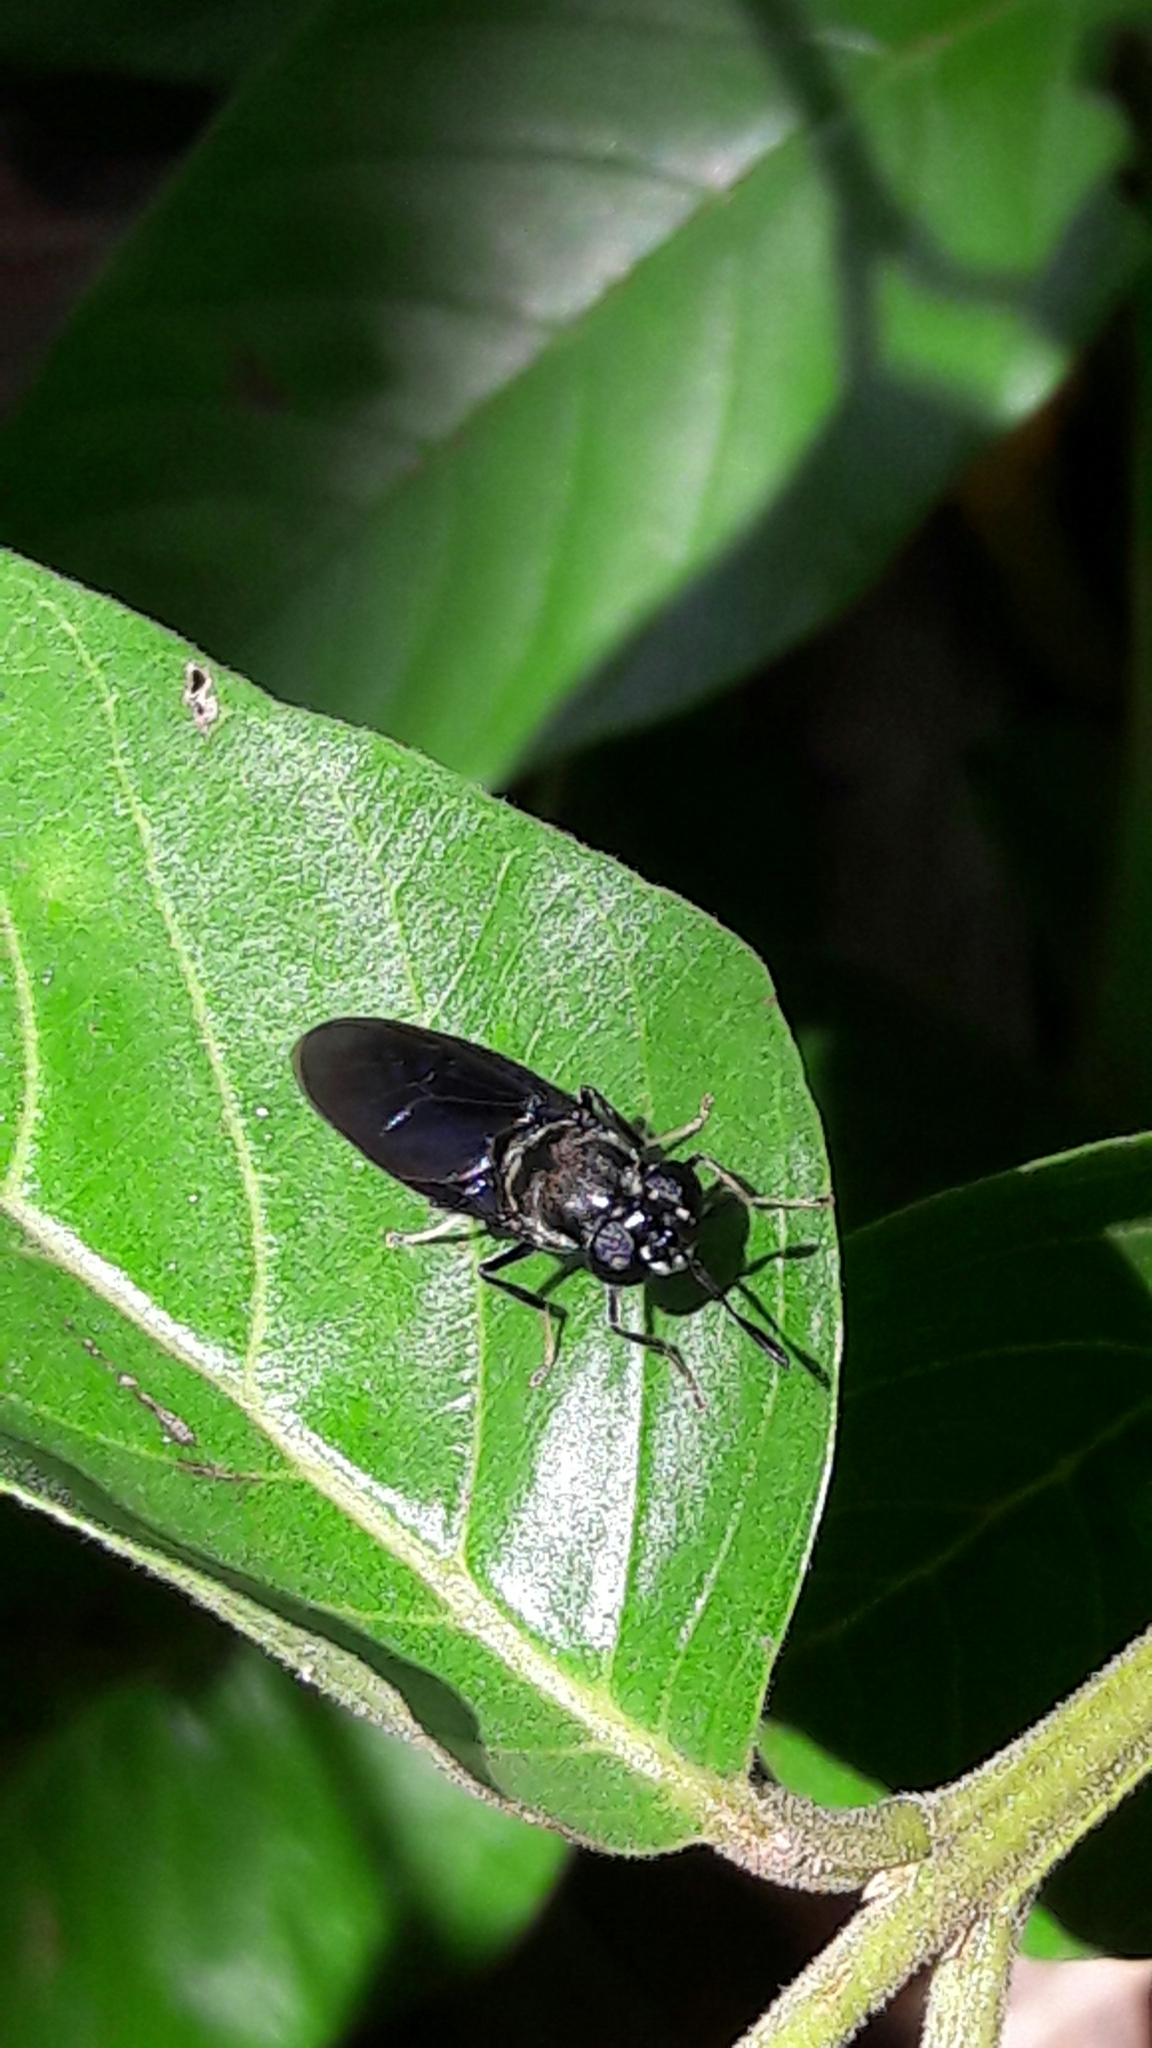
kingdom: Animalia
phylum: Arthropoda
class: Insecta
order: Diptera
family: Stratiomyidae
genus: Hermetia
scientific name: Hermetia illucens
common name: Black soldier fly
